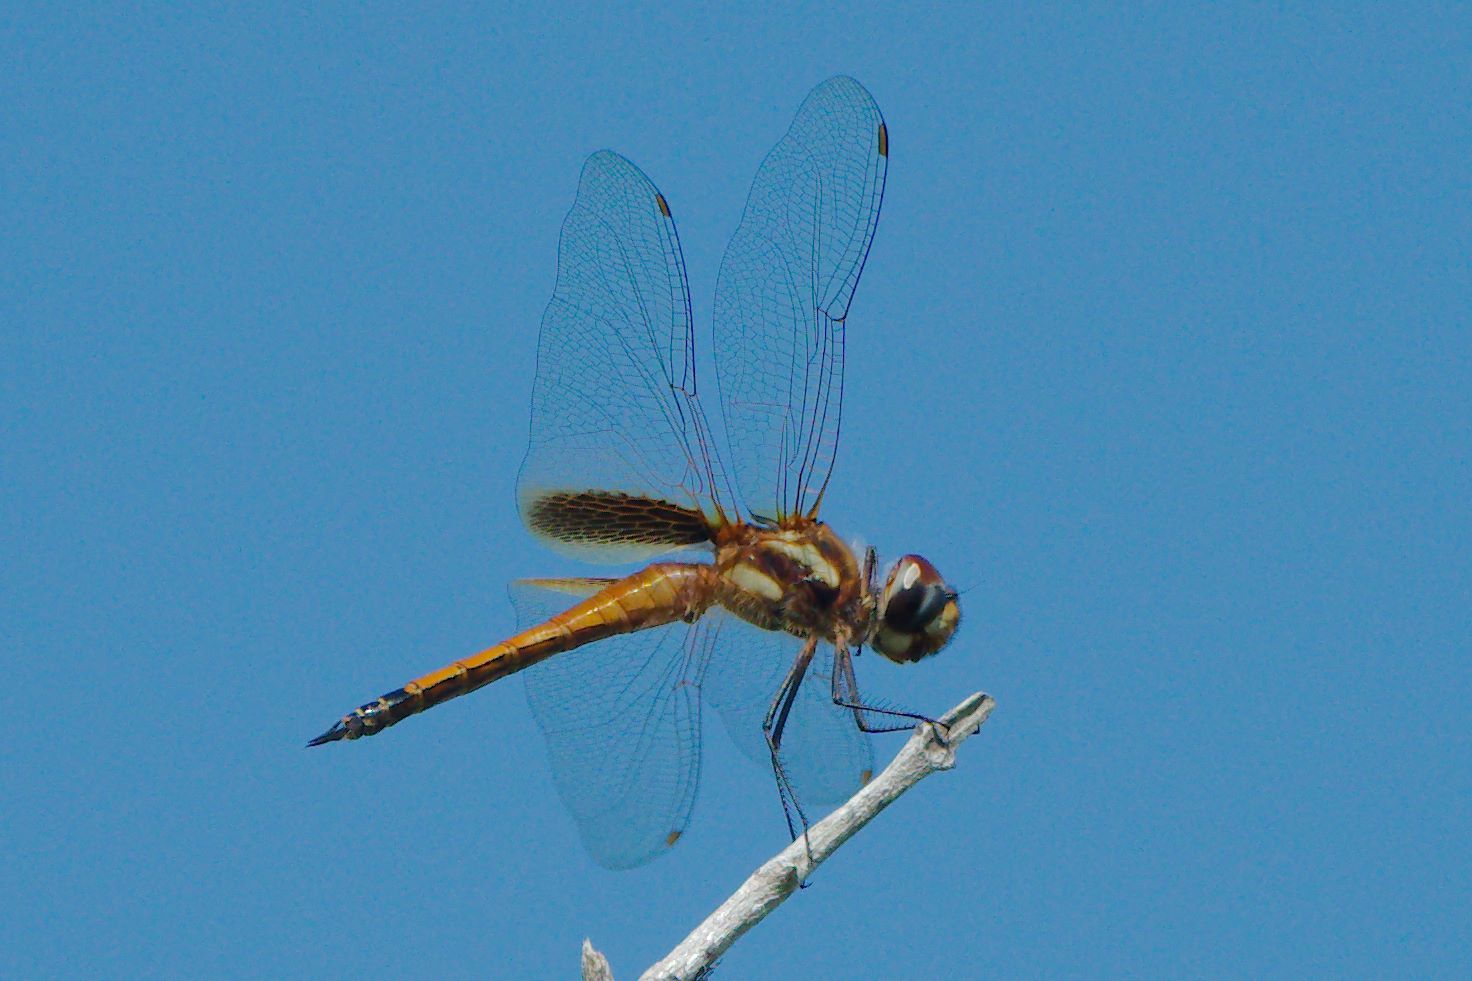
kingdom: Animalia
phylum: Arthropoda
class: Insecta
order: Odonata
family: Libellulidae
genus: Tramea
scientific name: Tramea darwini
